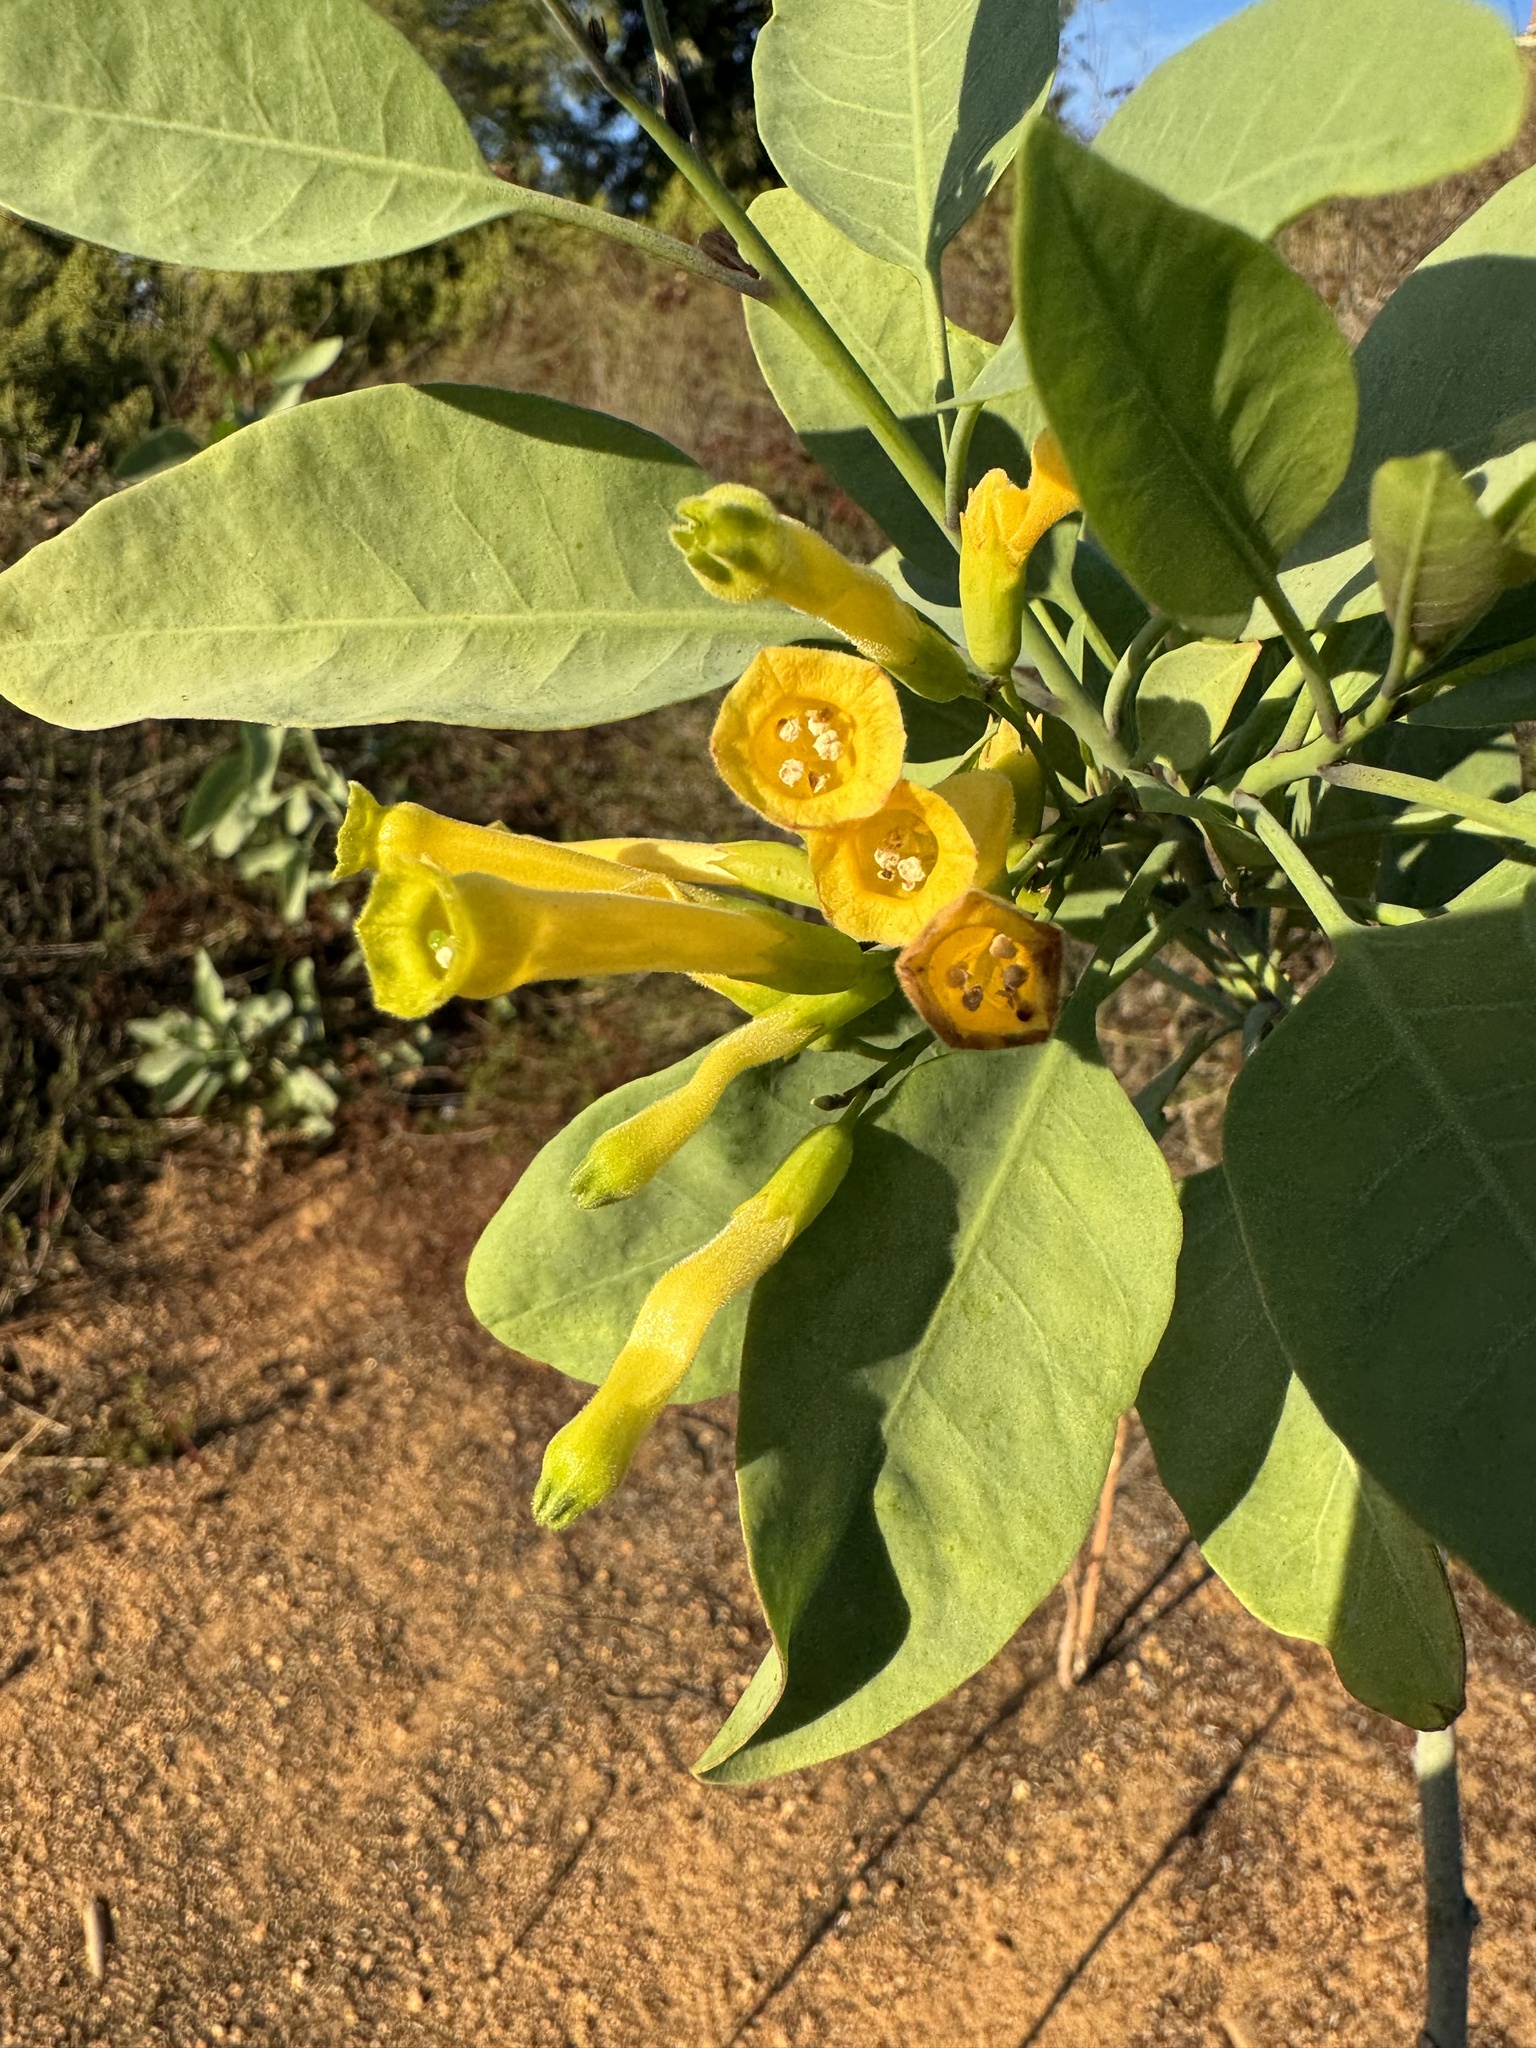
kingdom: Plantae
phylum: Tracheophyta
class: Magnoliopsida
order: Solanales
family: Solanaceae
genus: Nicotiana
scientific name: Nicotiana glauca
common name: Tree tobacco
